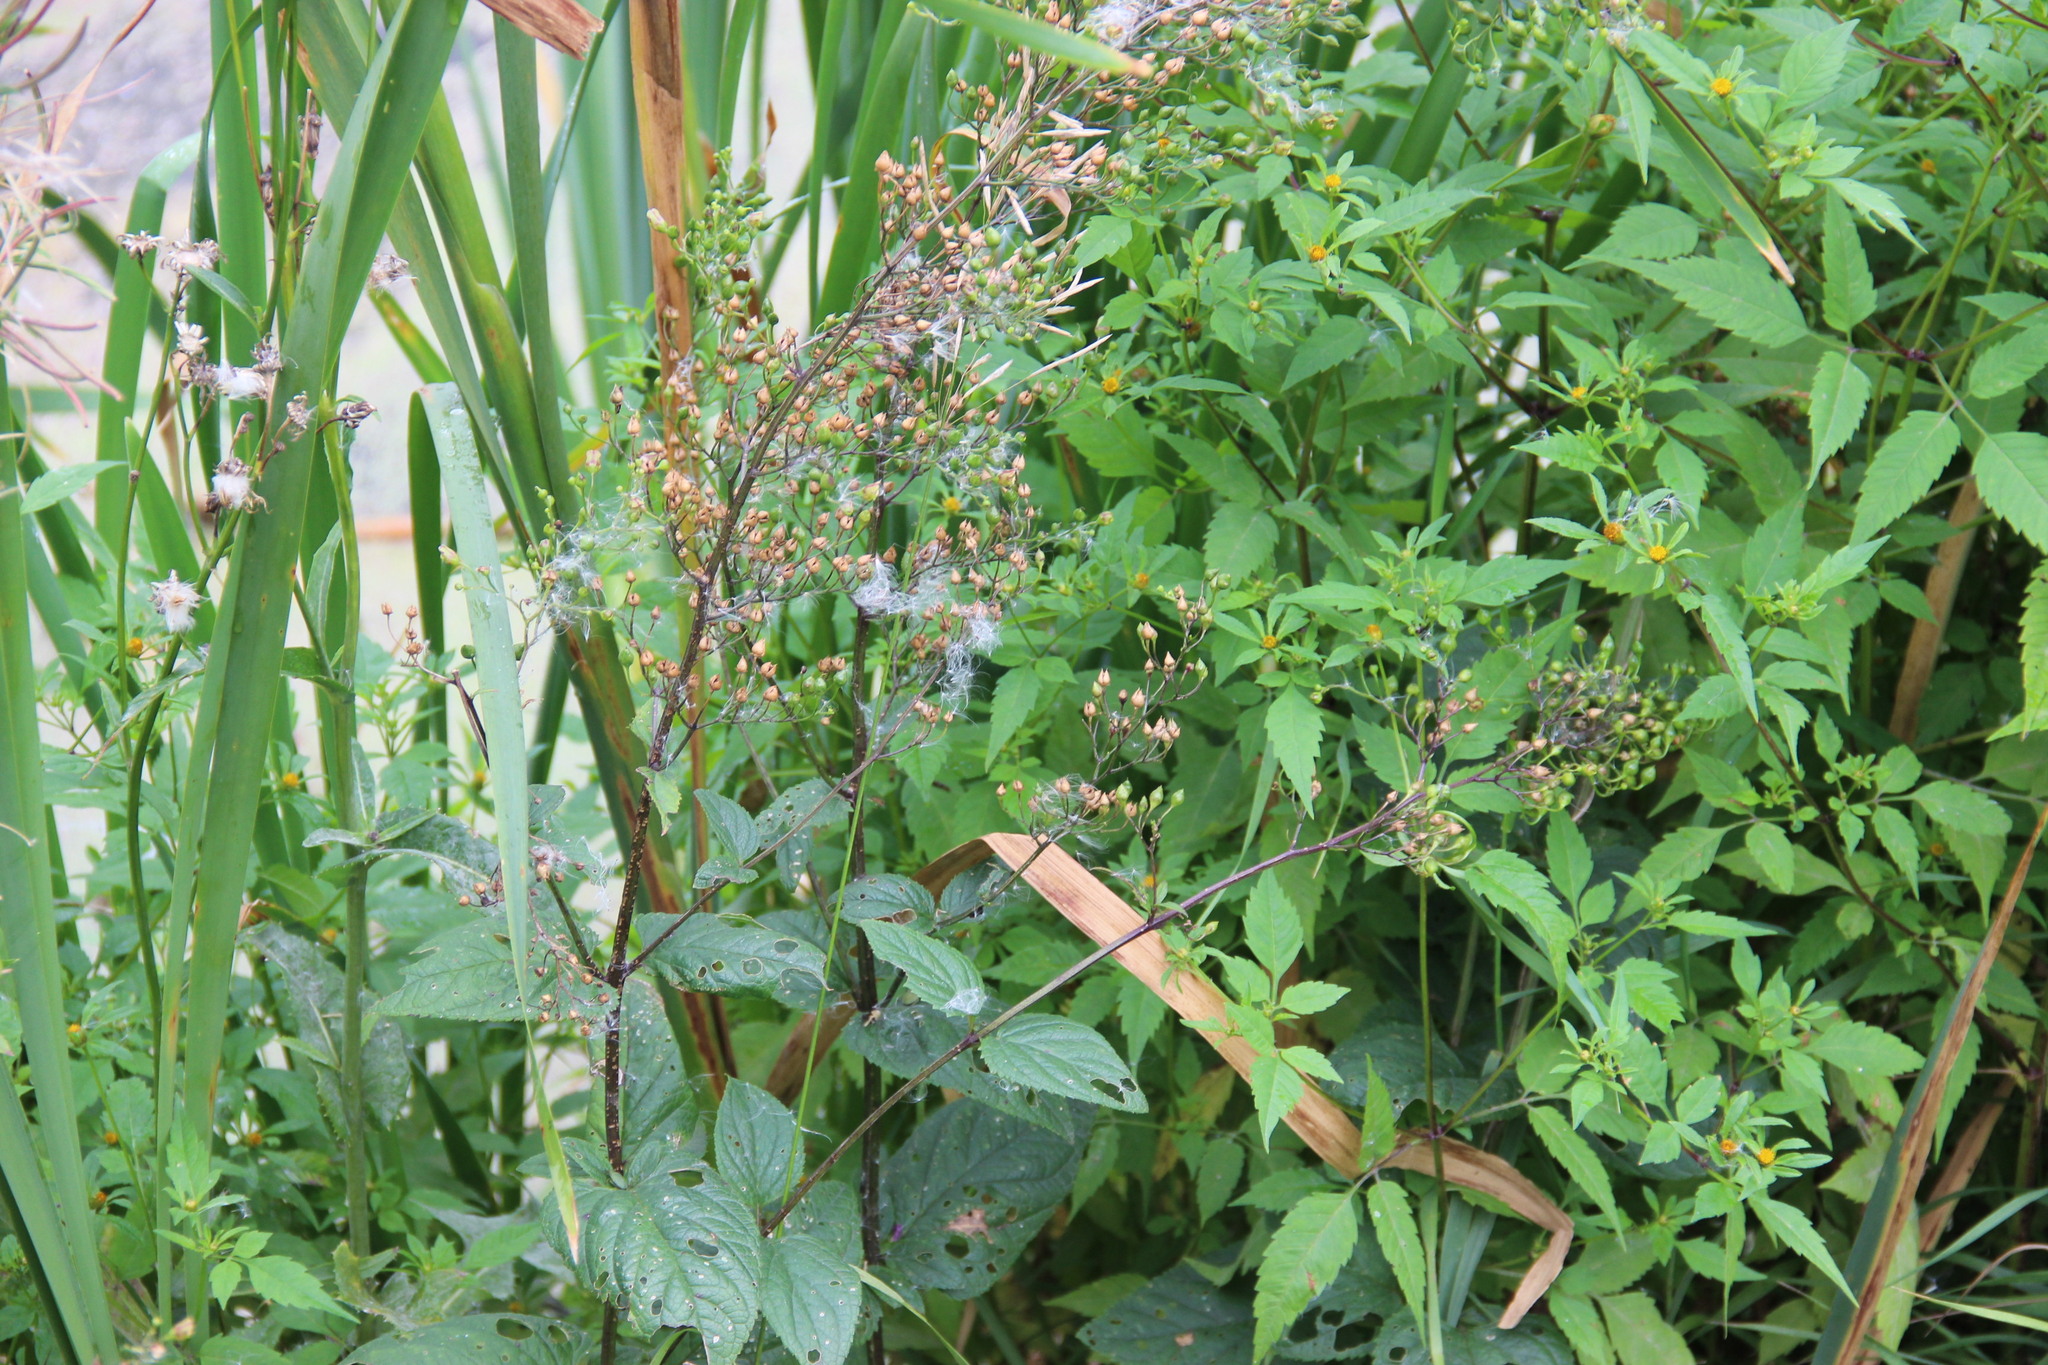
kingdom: Plantae
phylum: Tracheophyta
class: Magnoliopsida
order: Lamiales
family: Scrophulariaceae
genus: Scrophularia
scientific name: Scrophularia nodosa
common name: Common figwort
